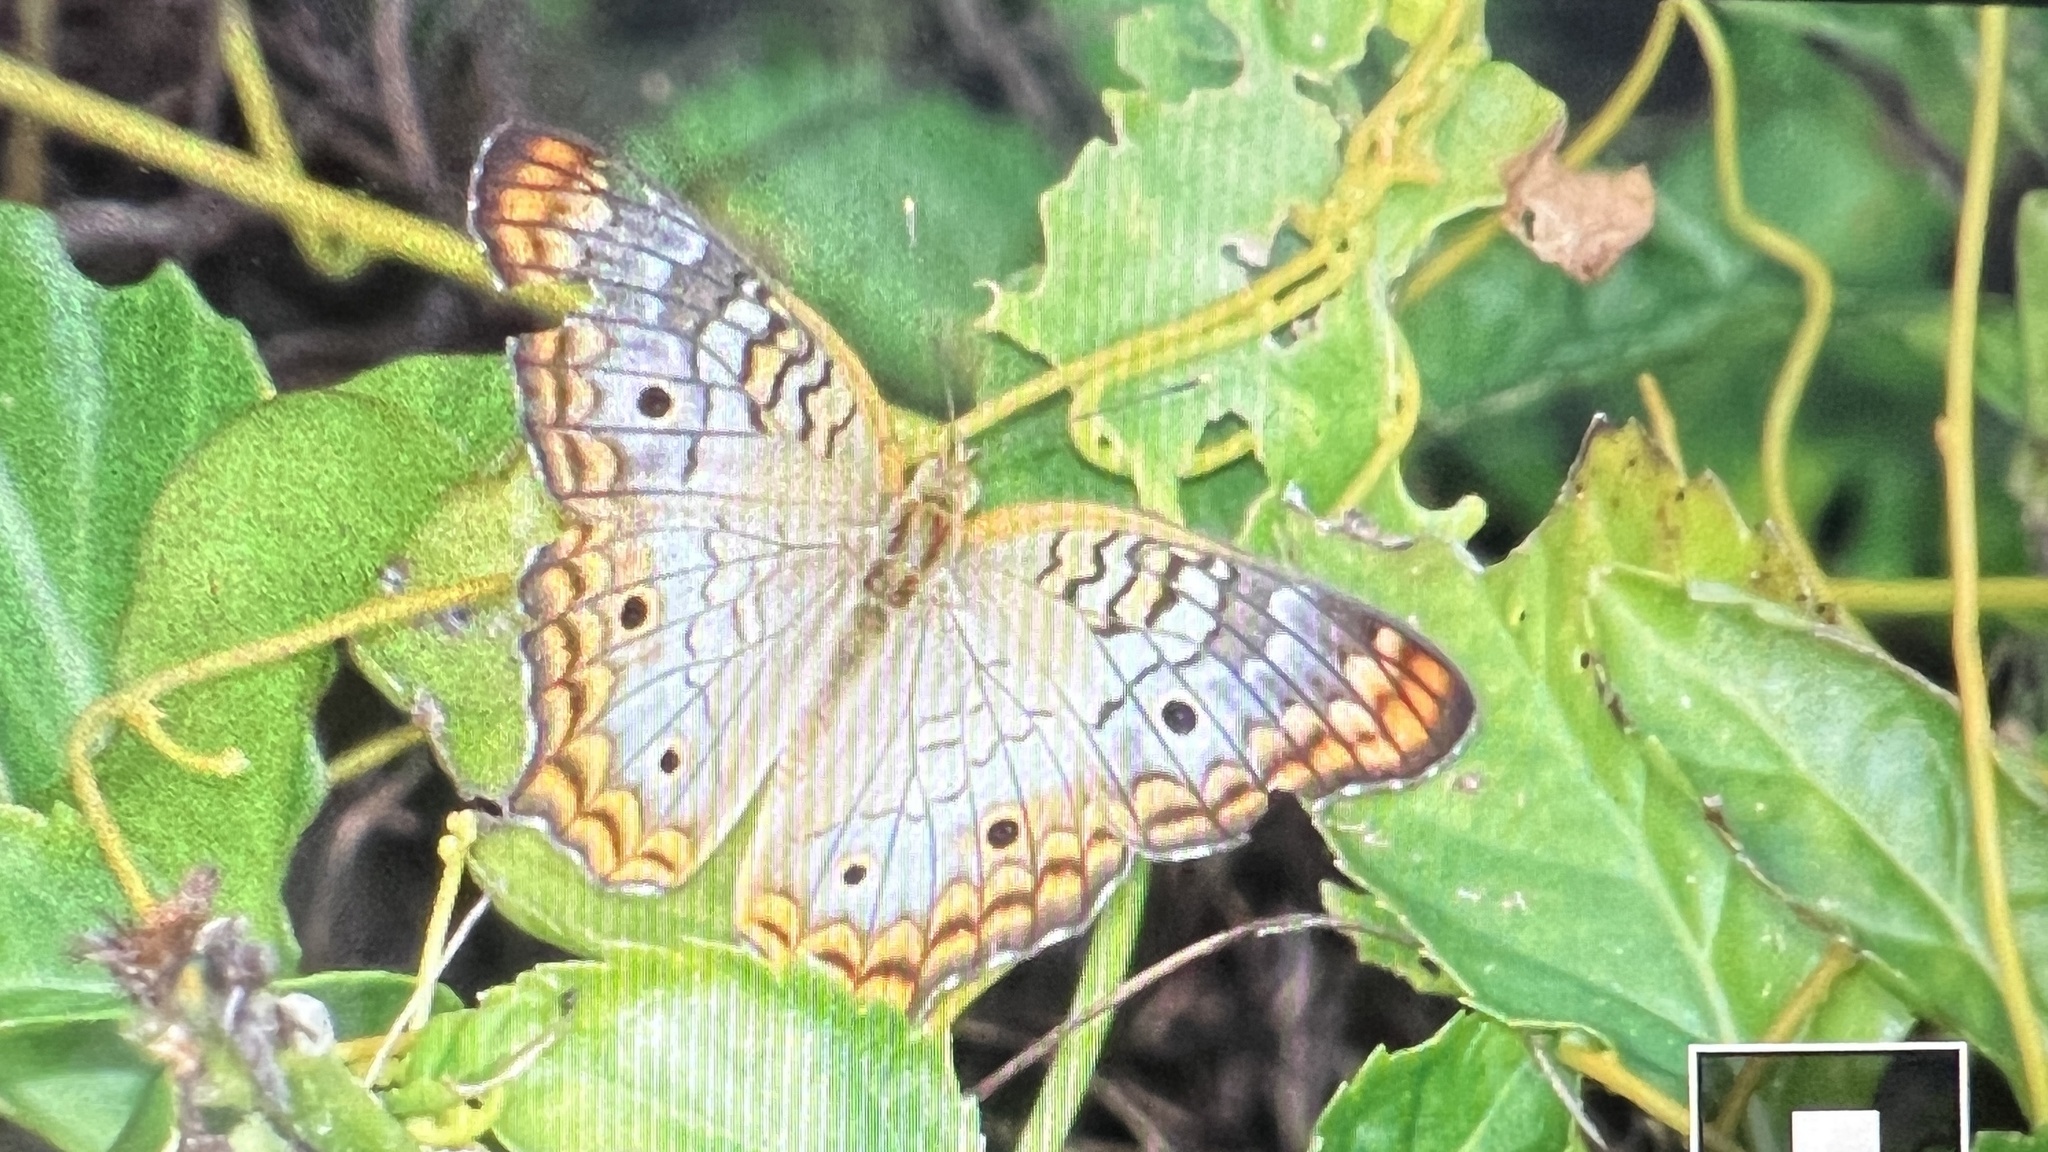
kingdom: Animalia
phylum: Arthropoda
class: Insecta
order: Lepidoptera
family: Nymphalidae
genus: Anartia
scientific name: Anartia jatrophae
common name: White peacock
